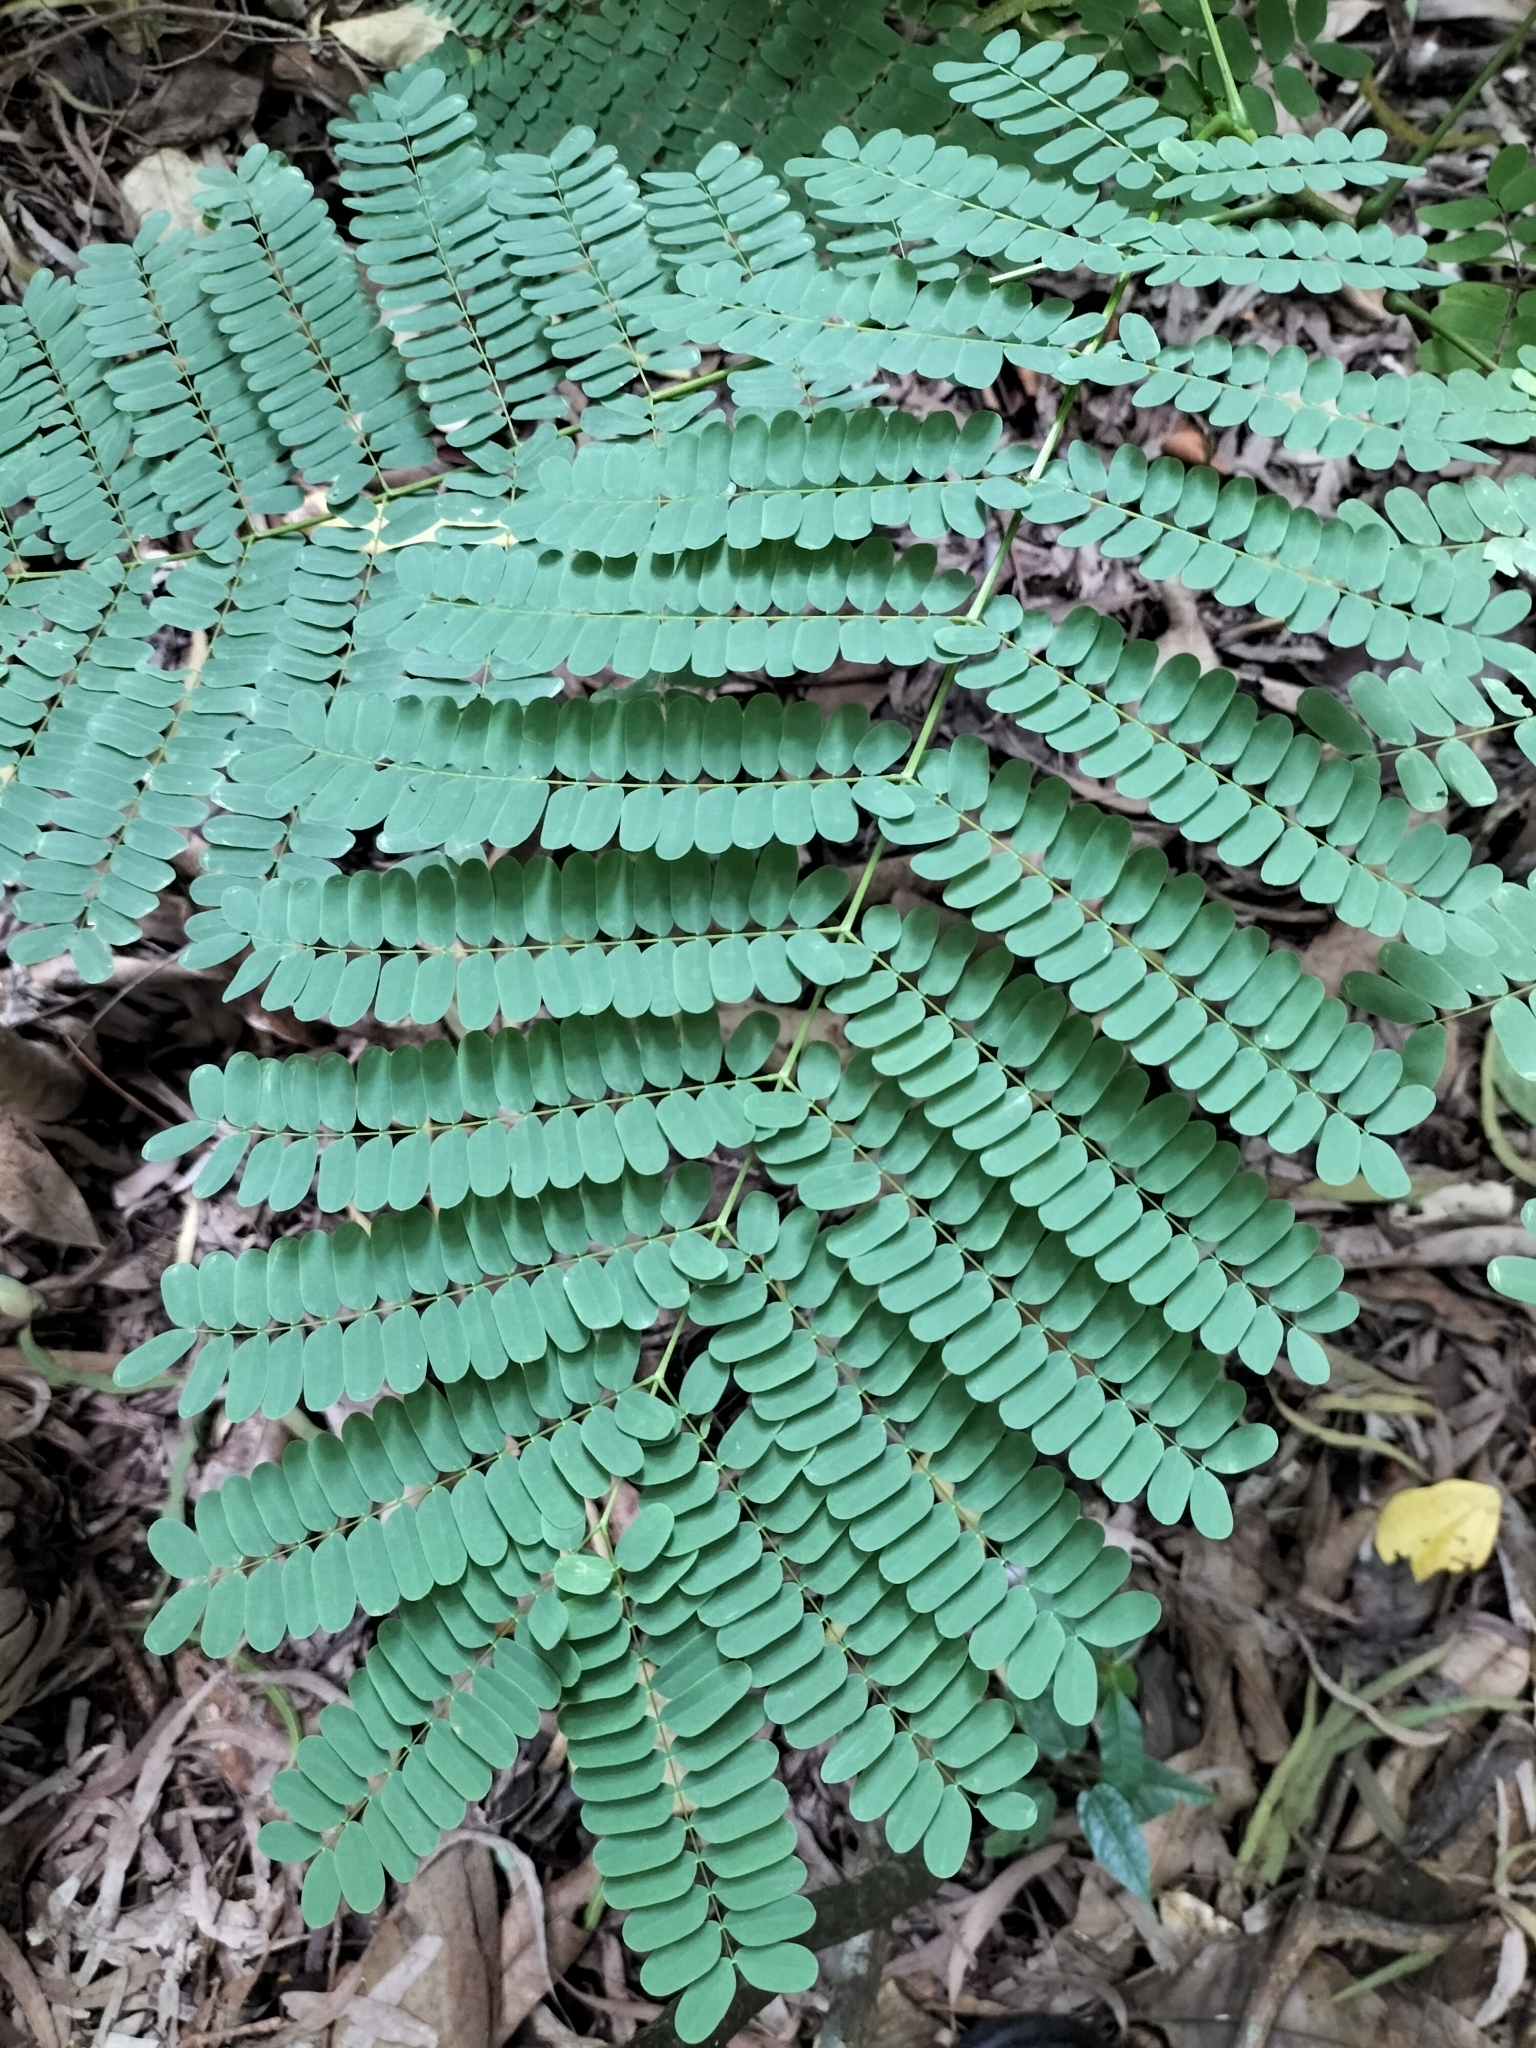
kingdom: Plantae
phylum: Tracheophyta
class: Magnoliopsida
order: Fabales
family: Fabaceae
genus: Delonix
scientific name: Delonix regia
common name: Royal poinciana
